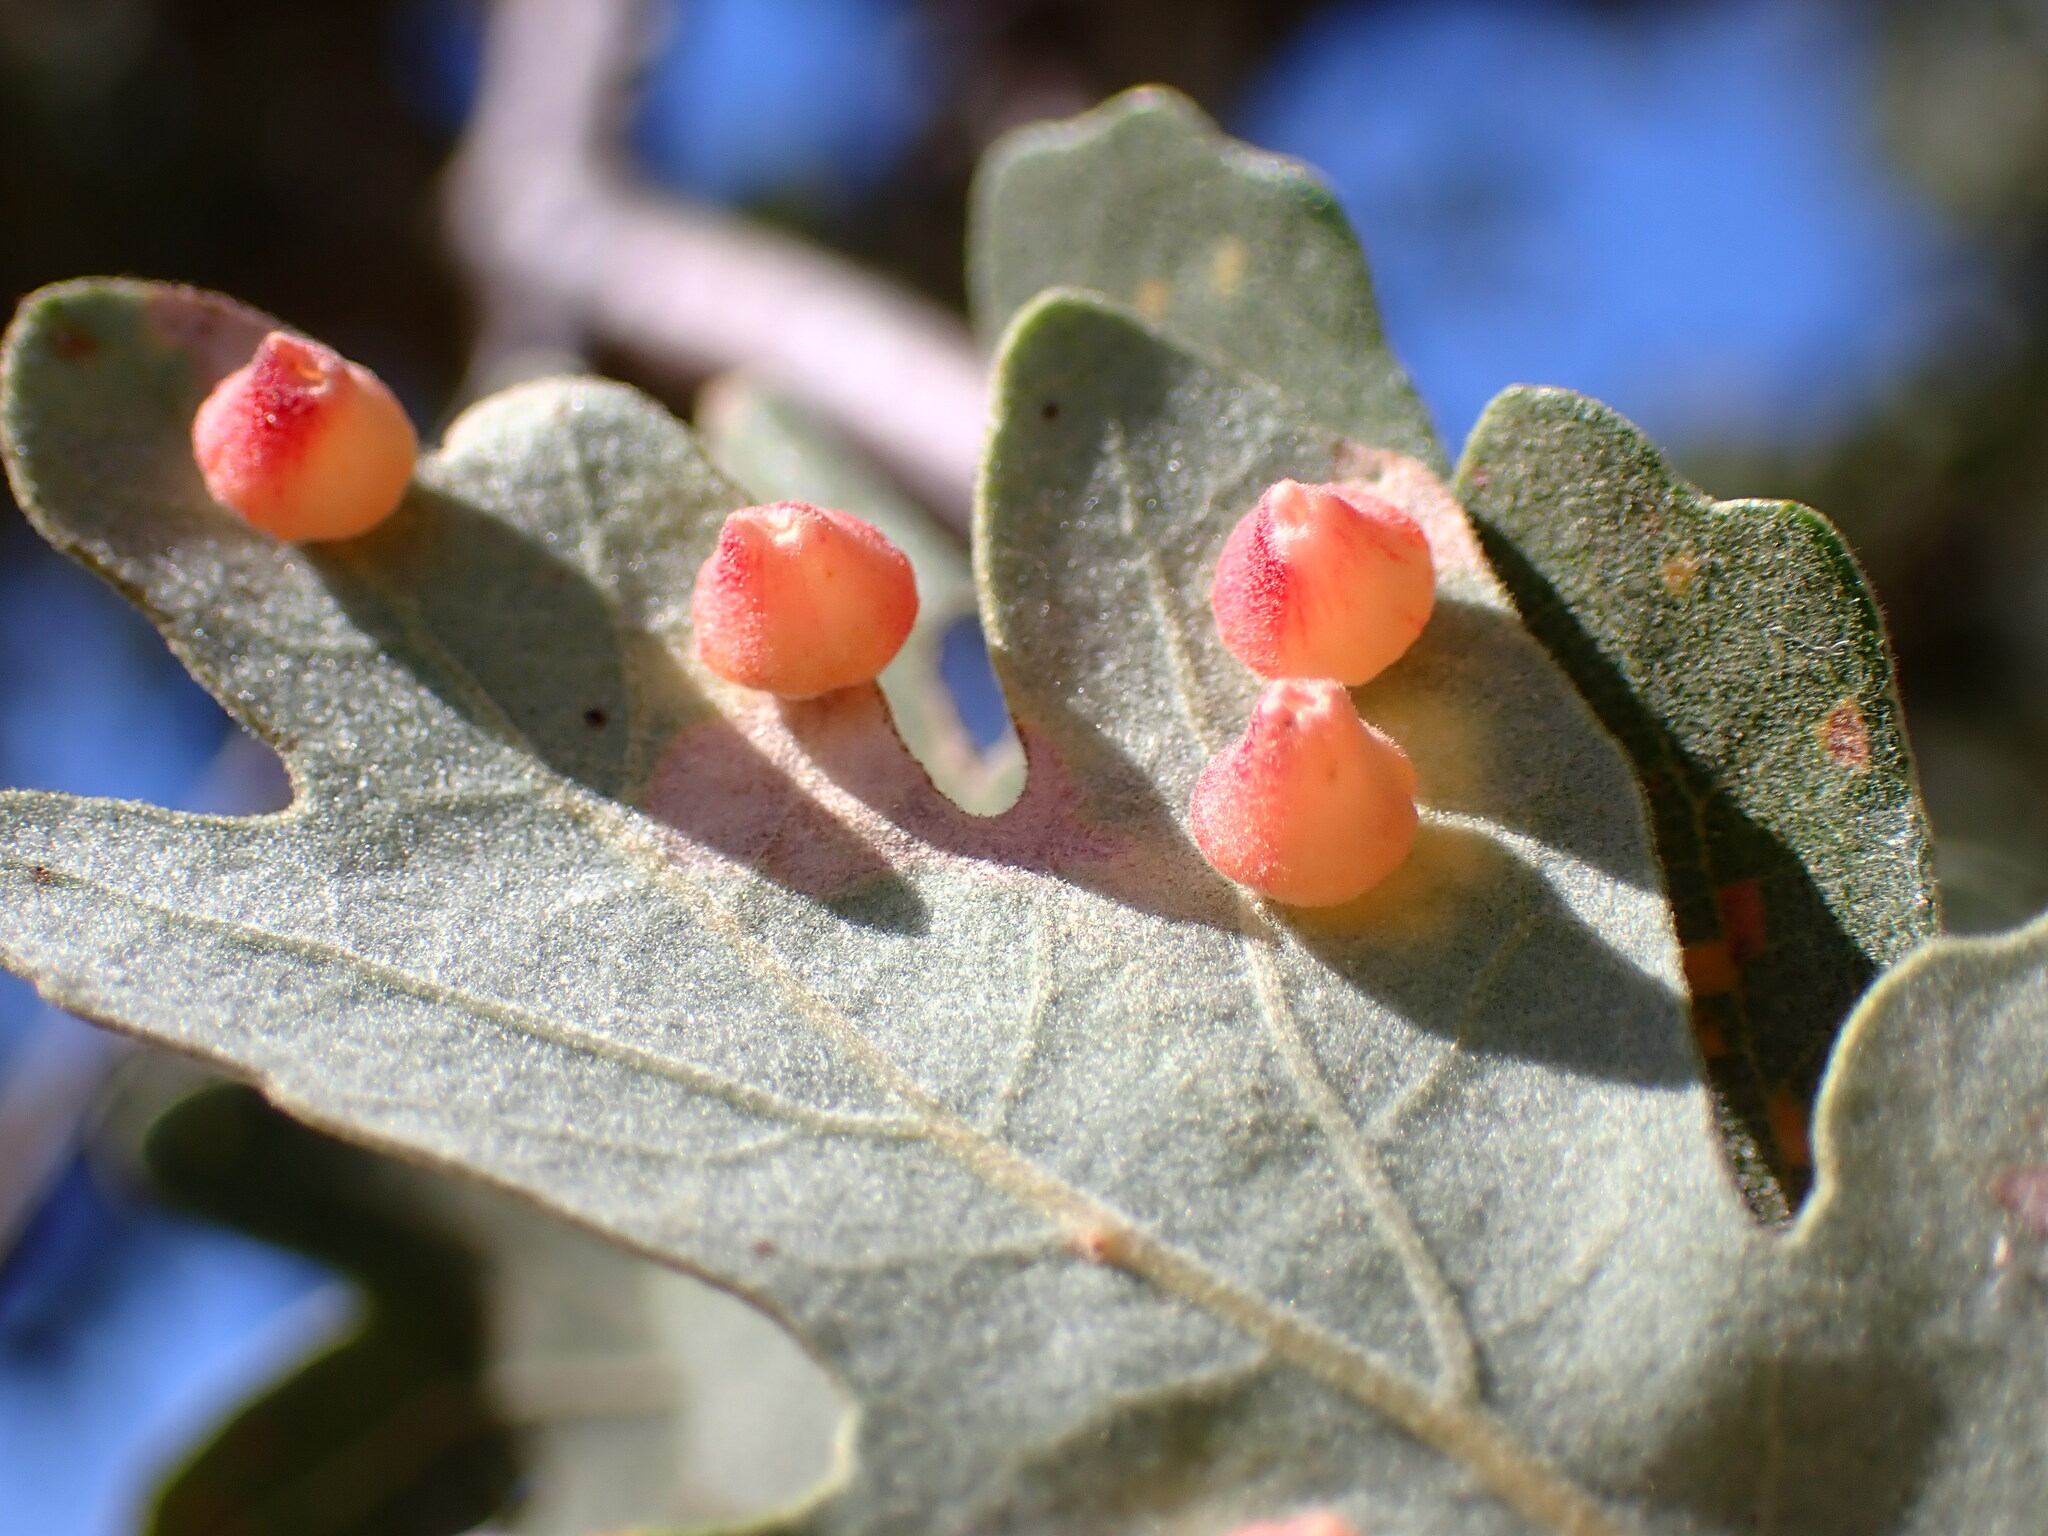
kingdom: Animalia
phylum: Arthropoda
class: Insecta
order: Hymenoptera
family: Cynipidae
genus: Andricus
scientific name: Andricus
